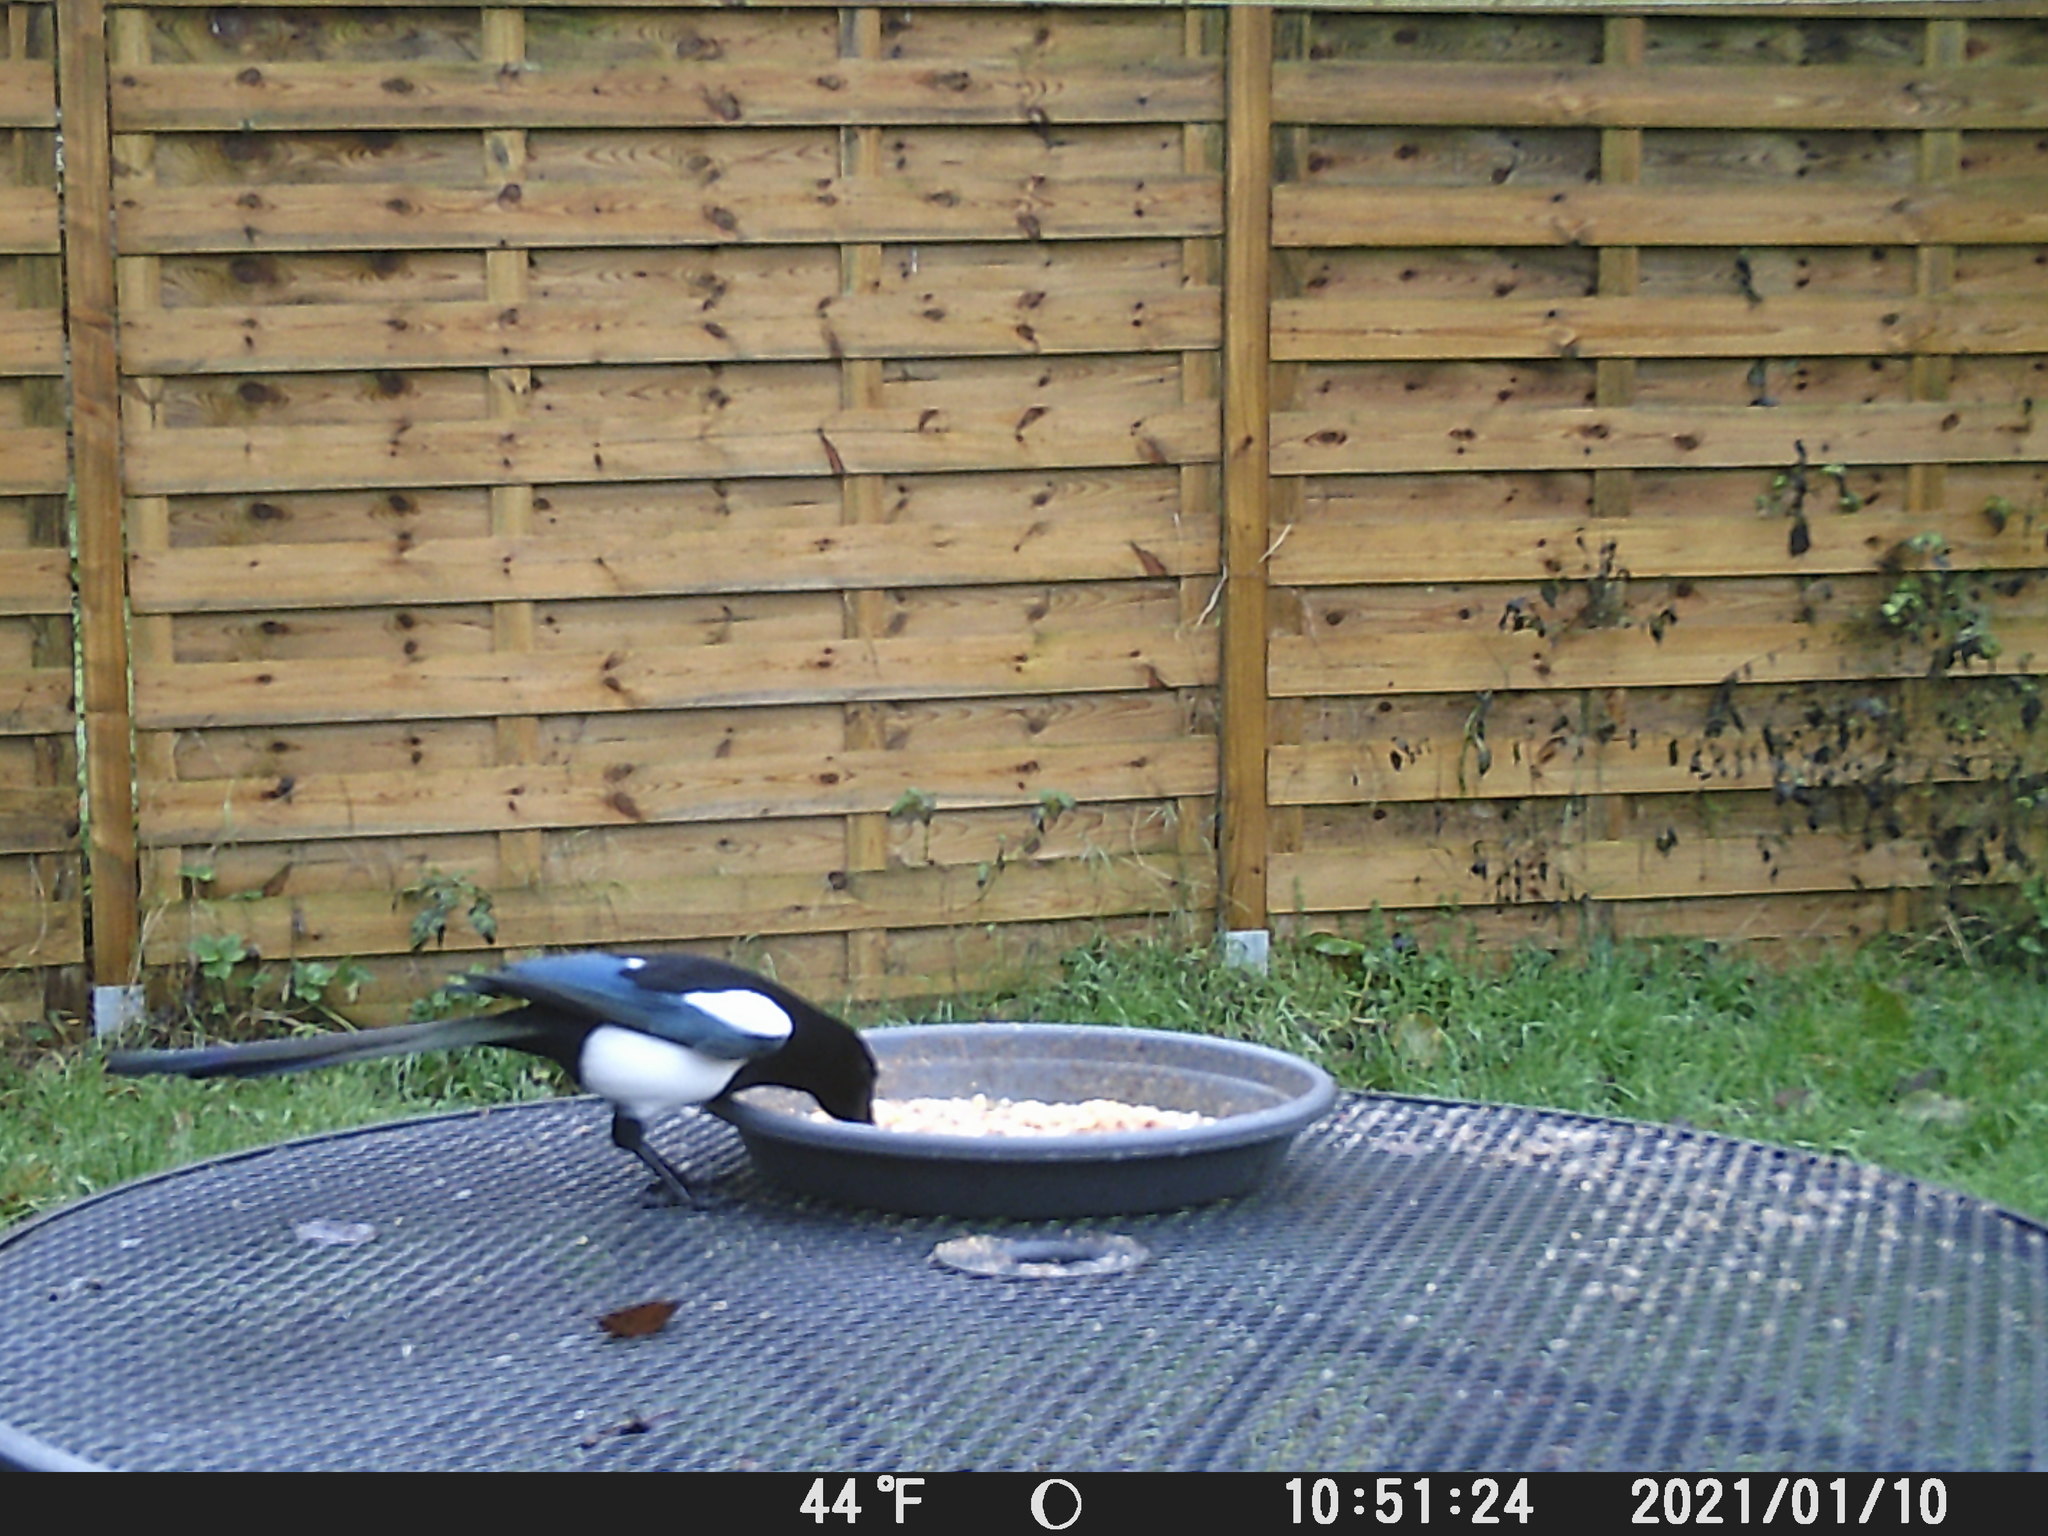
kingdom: Animalia
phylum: Chordata
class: Aves
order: Passeriformes
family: Corvidae
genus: Pica
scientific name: Pica pica
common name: Eurasian magpie
